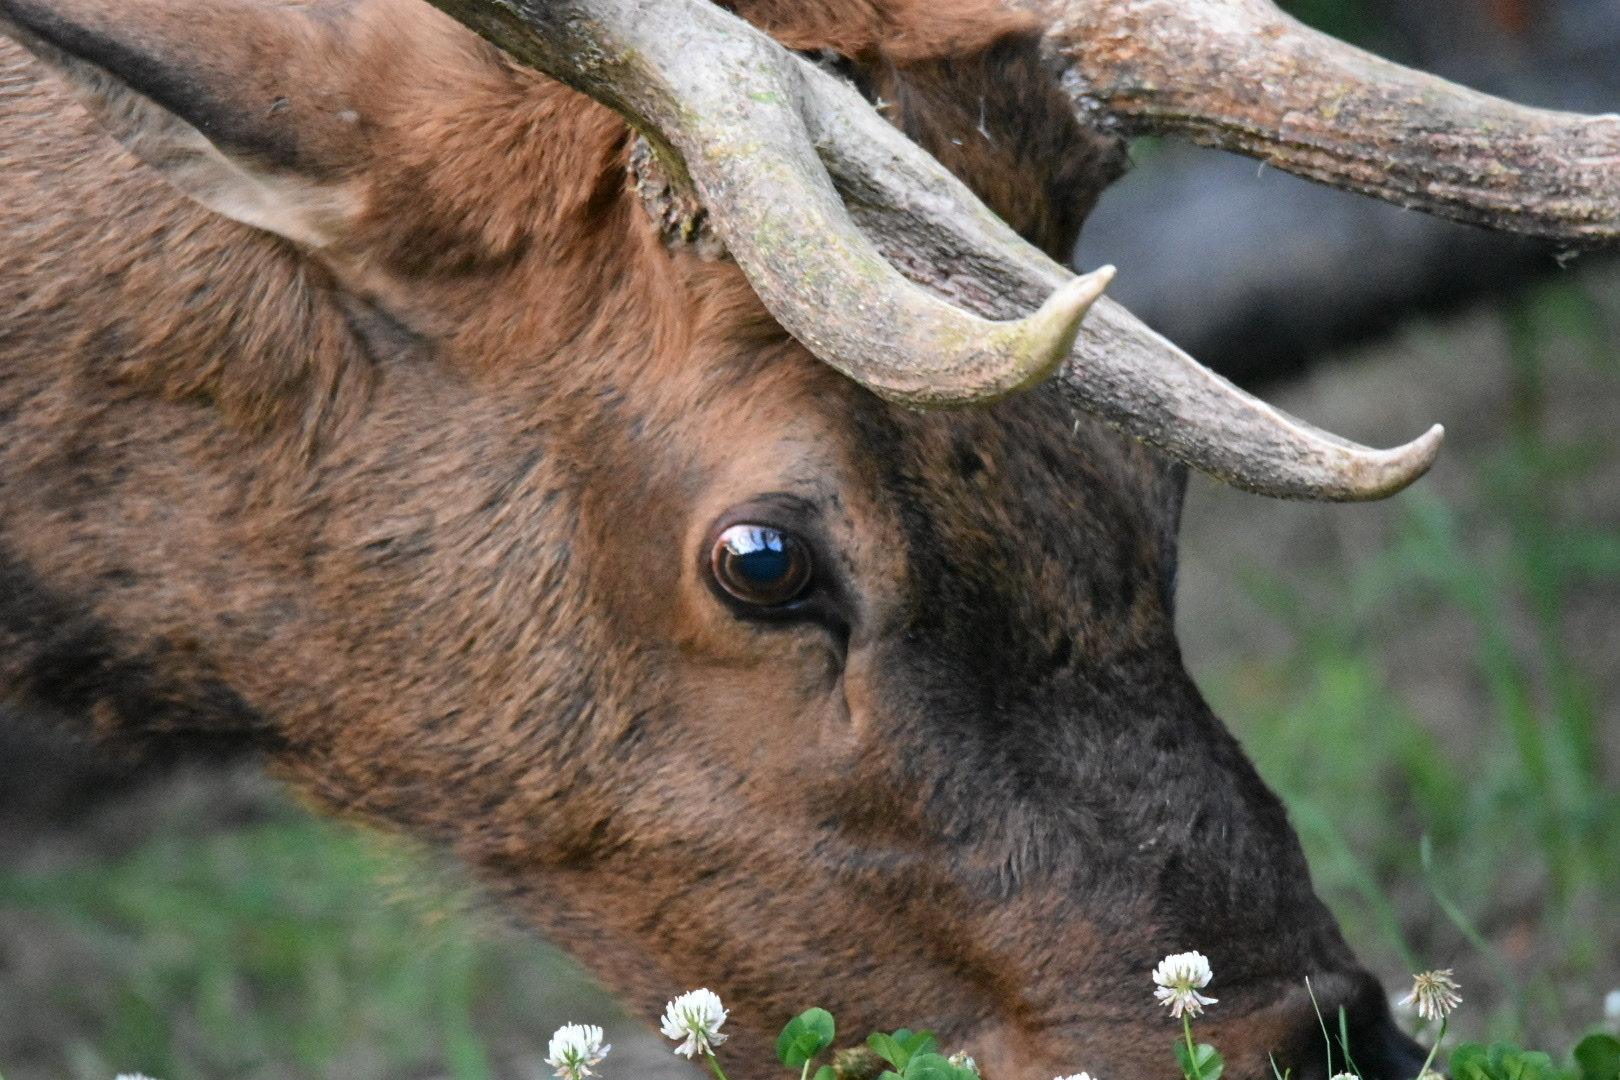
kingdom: Animalia
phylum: Chordata
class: Mammalia
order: Artiodactyla
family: Cervidae
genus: Cervus
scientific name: Cervus elaphus
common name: Red deer
